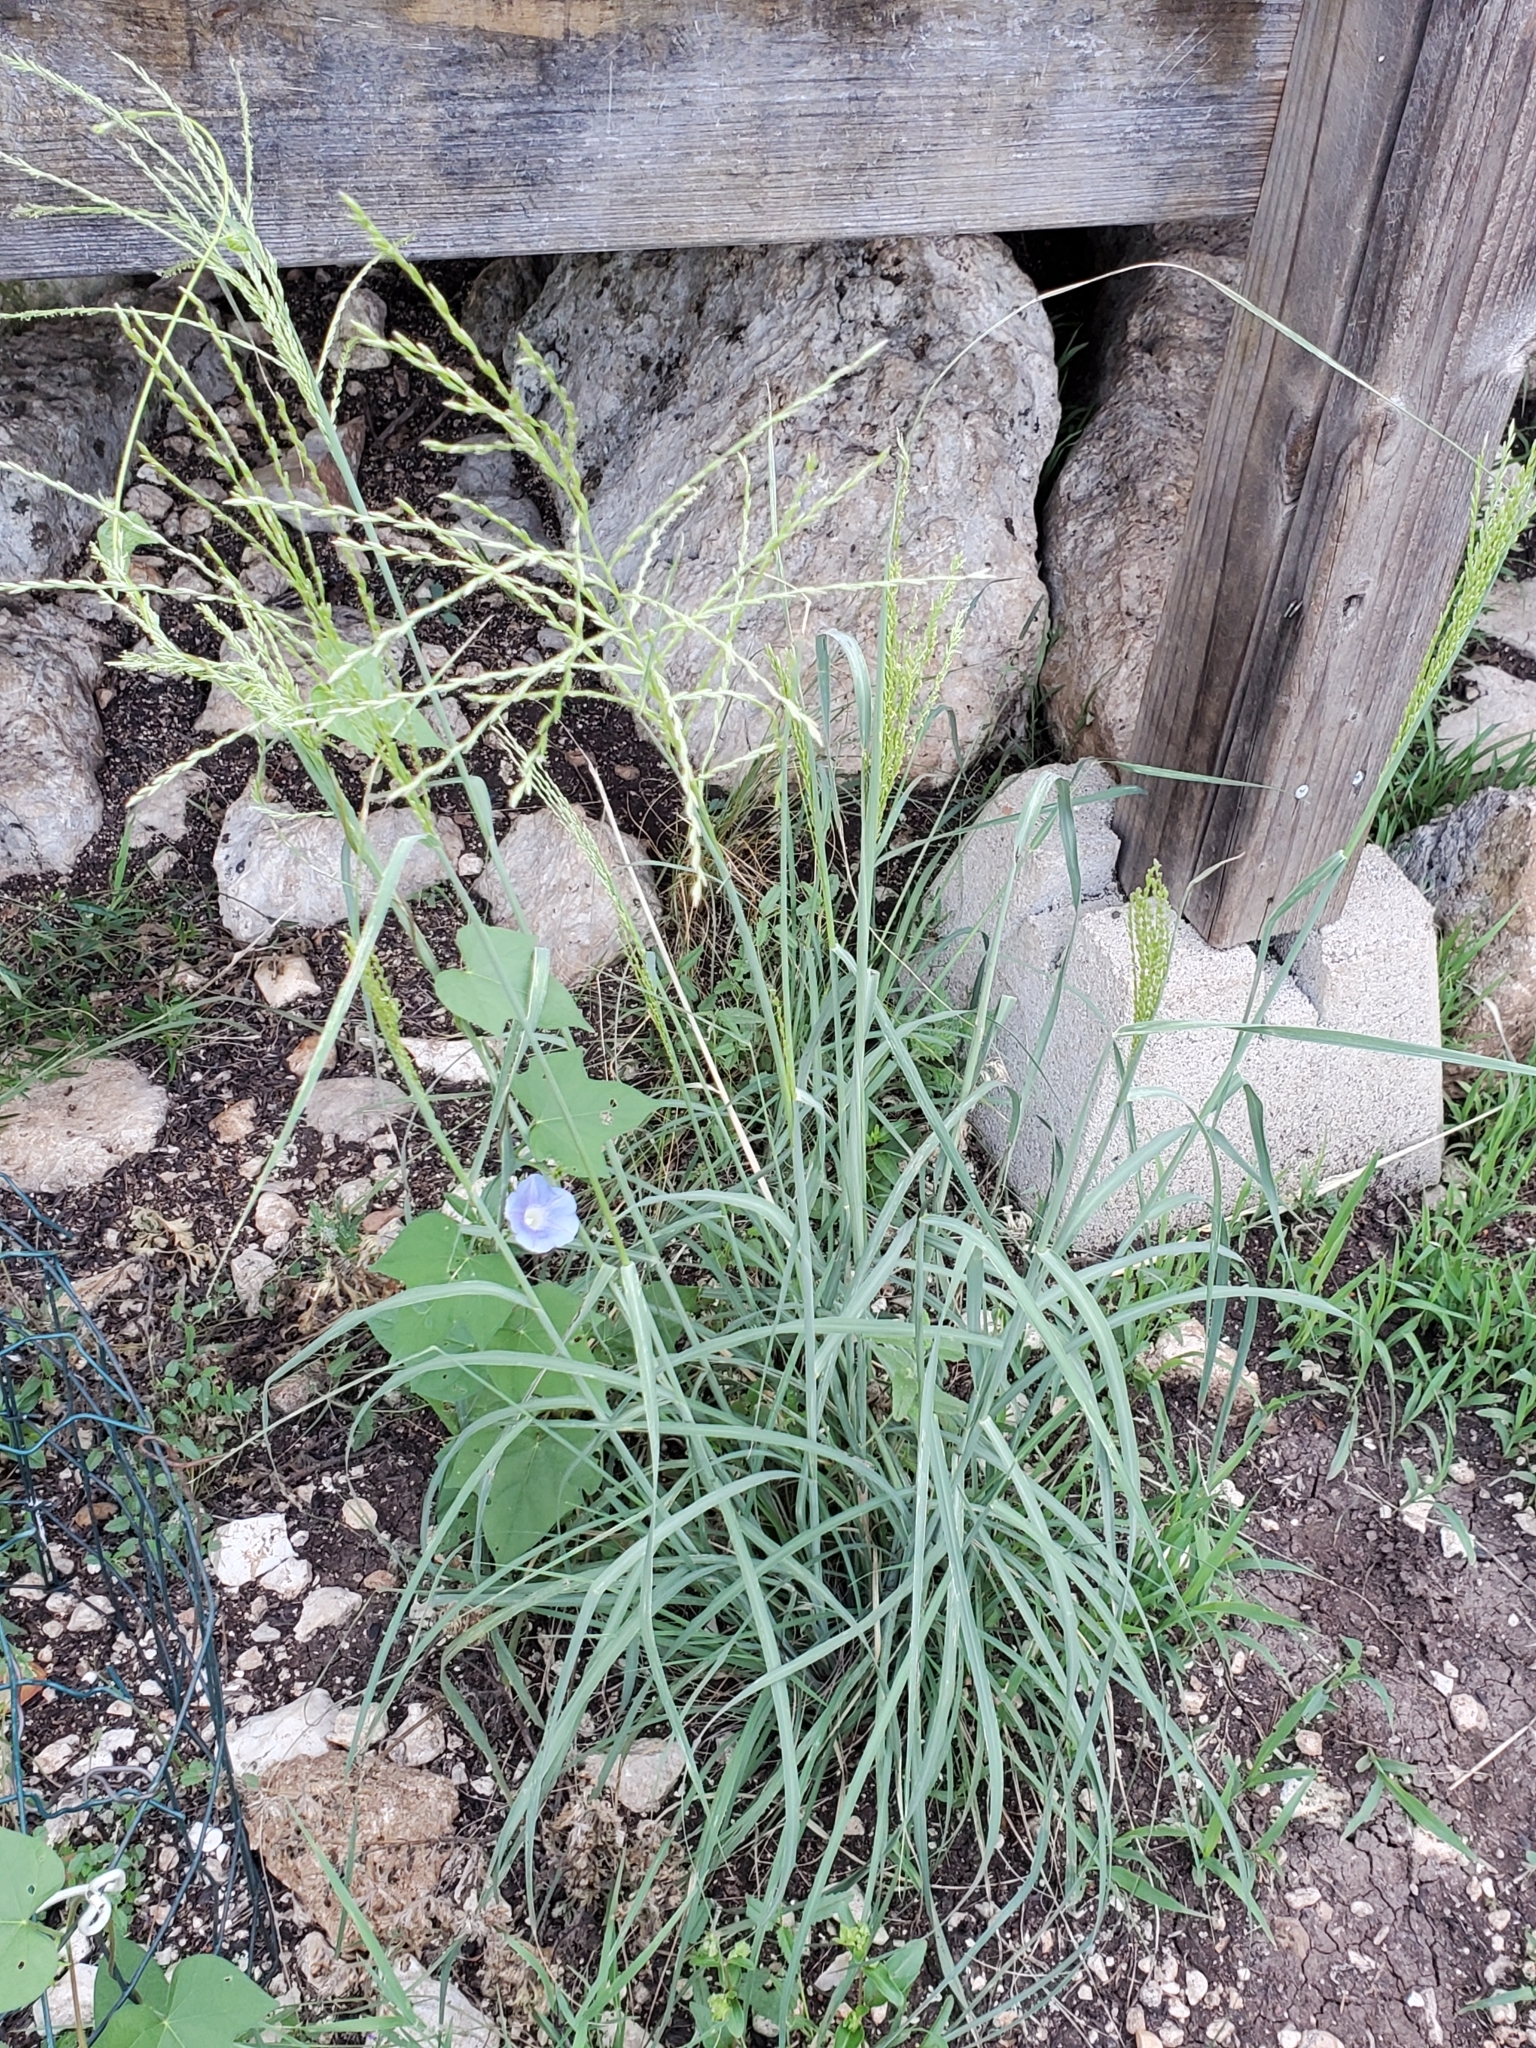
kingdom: Plantae
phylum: Tracheophyta
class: Liliopsida
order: Poales
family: Poaceae
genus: Disakisperma
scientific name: Disakisperma dubium
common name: Green sprangletop
